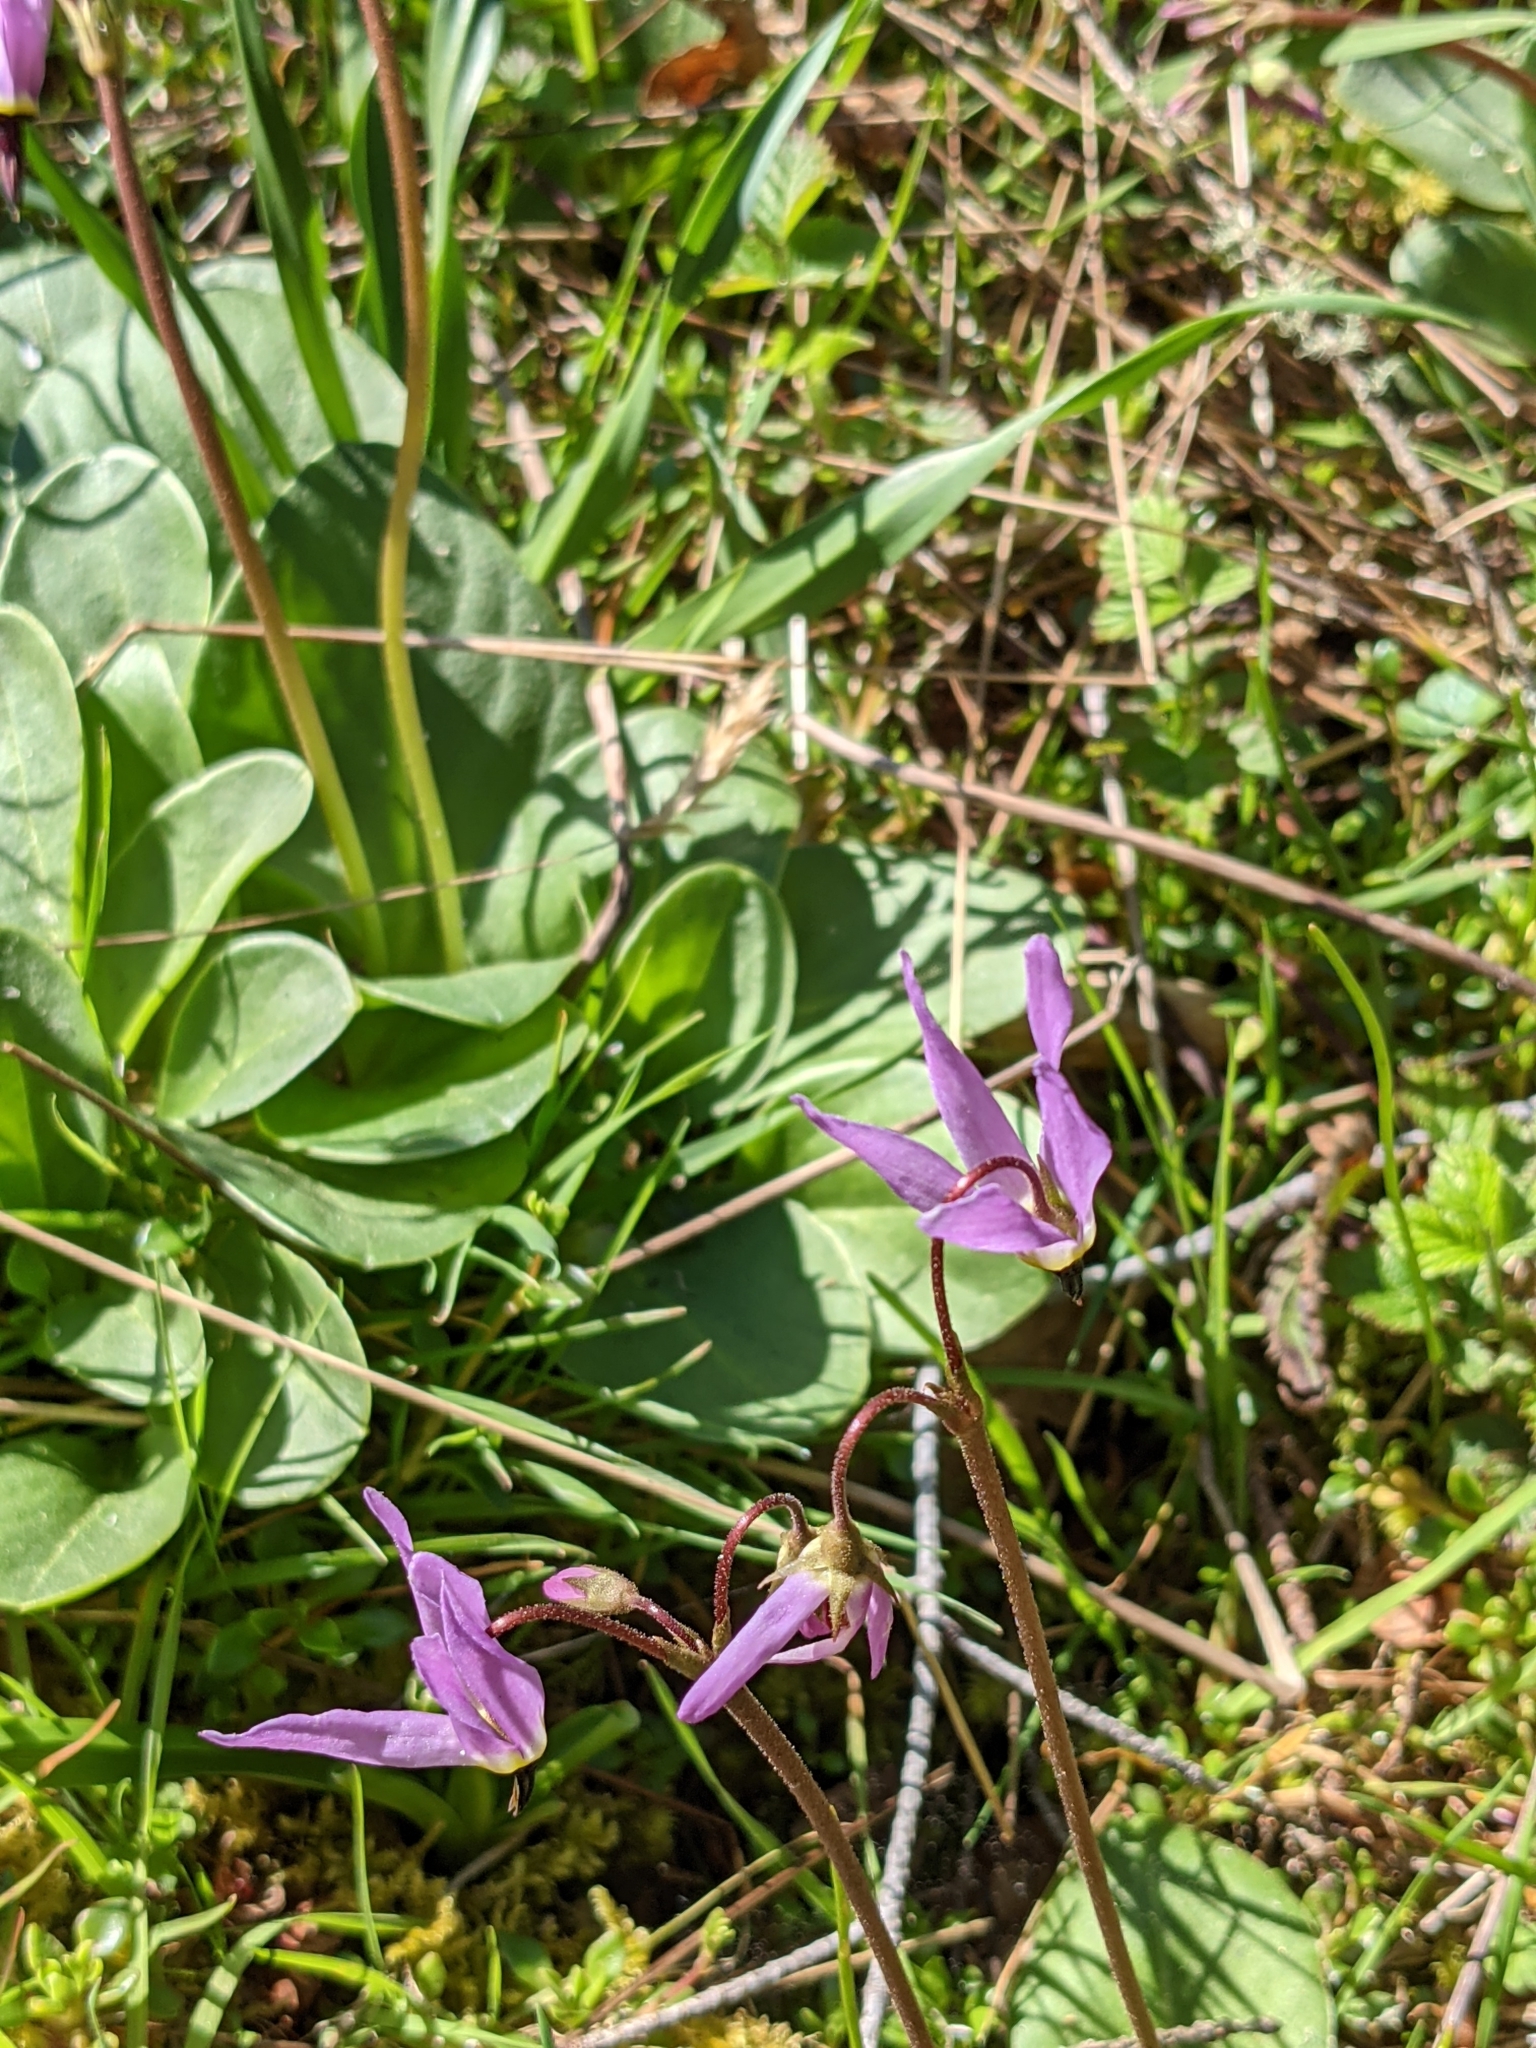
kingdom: Plantae
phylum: Tracheophyta
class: Magnoliopsida
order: Ericales
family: Primulaceae
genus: Dodecatheon
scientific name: Dodecatheon hendersonii
